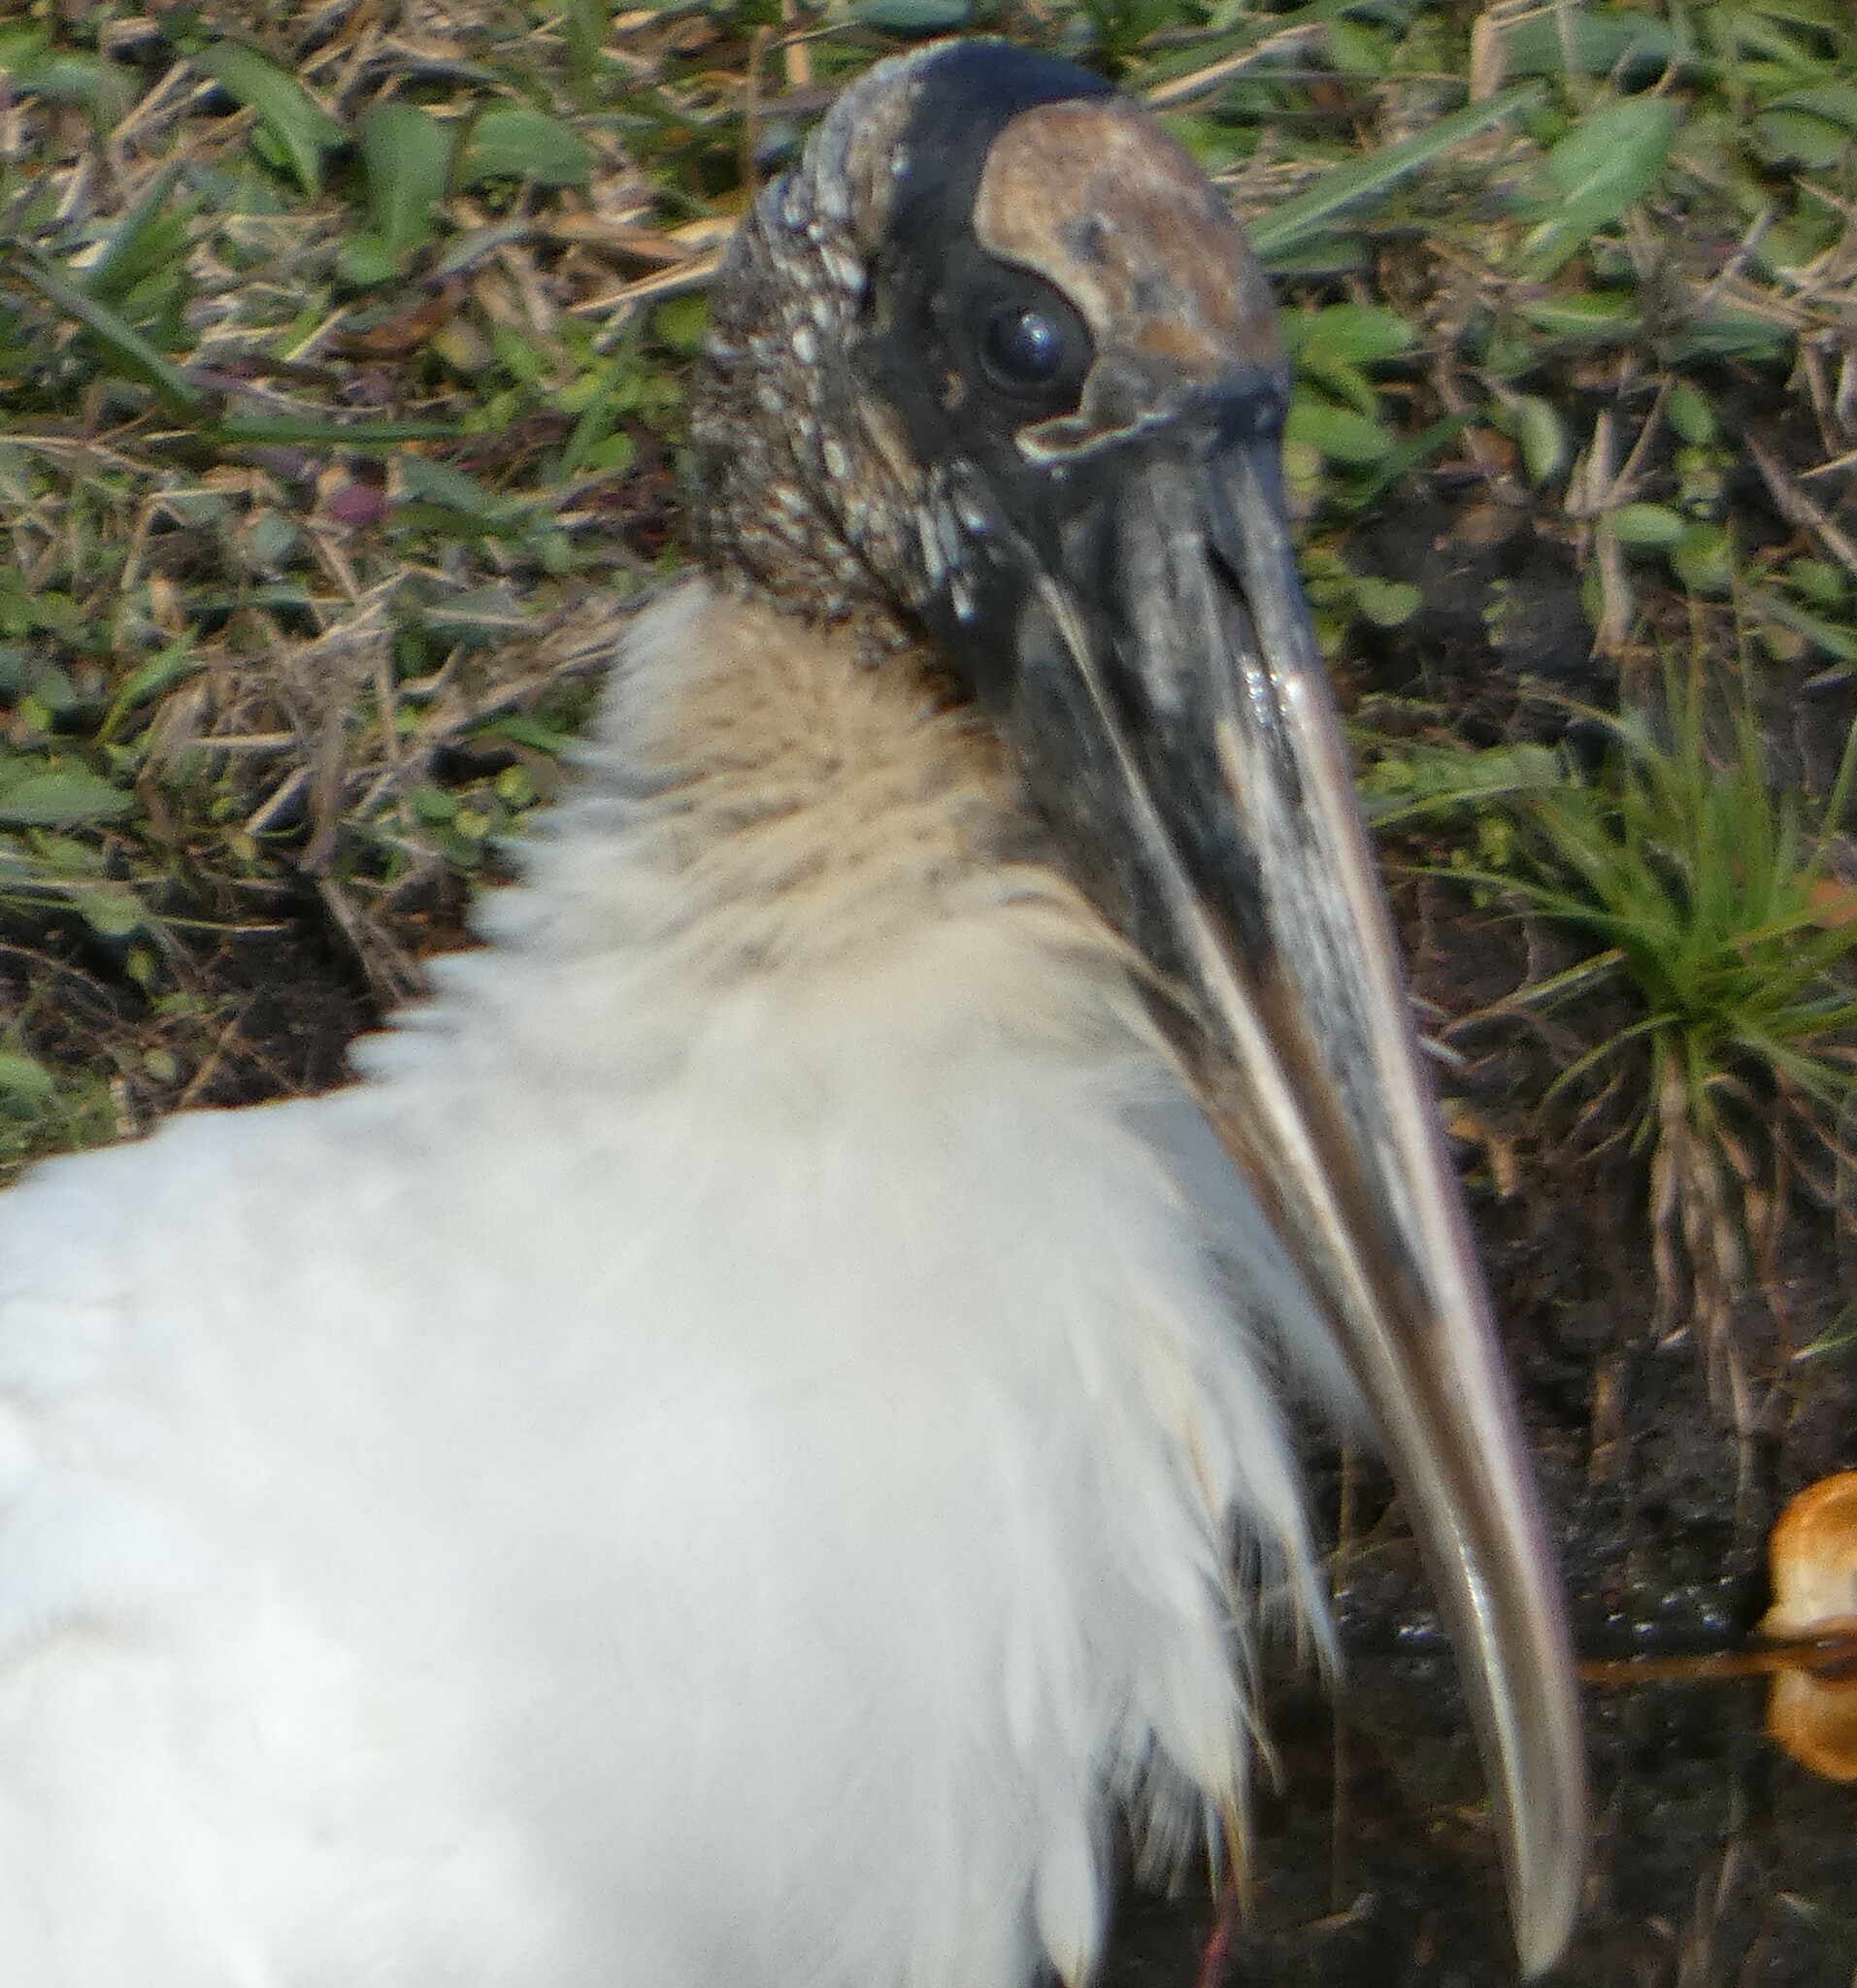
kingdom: Animalia
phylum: Chordata
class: Aves
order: Ciconiiformes
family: Ciconiidae
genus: Mycteria
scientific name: Mycteria americana
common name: Wood stork
